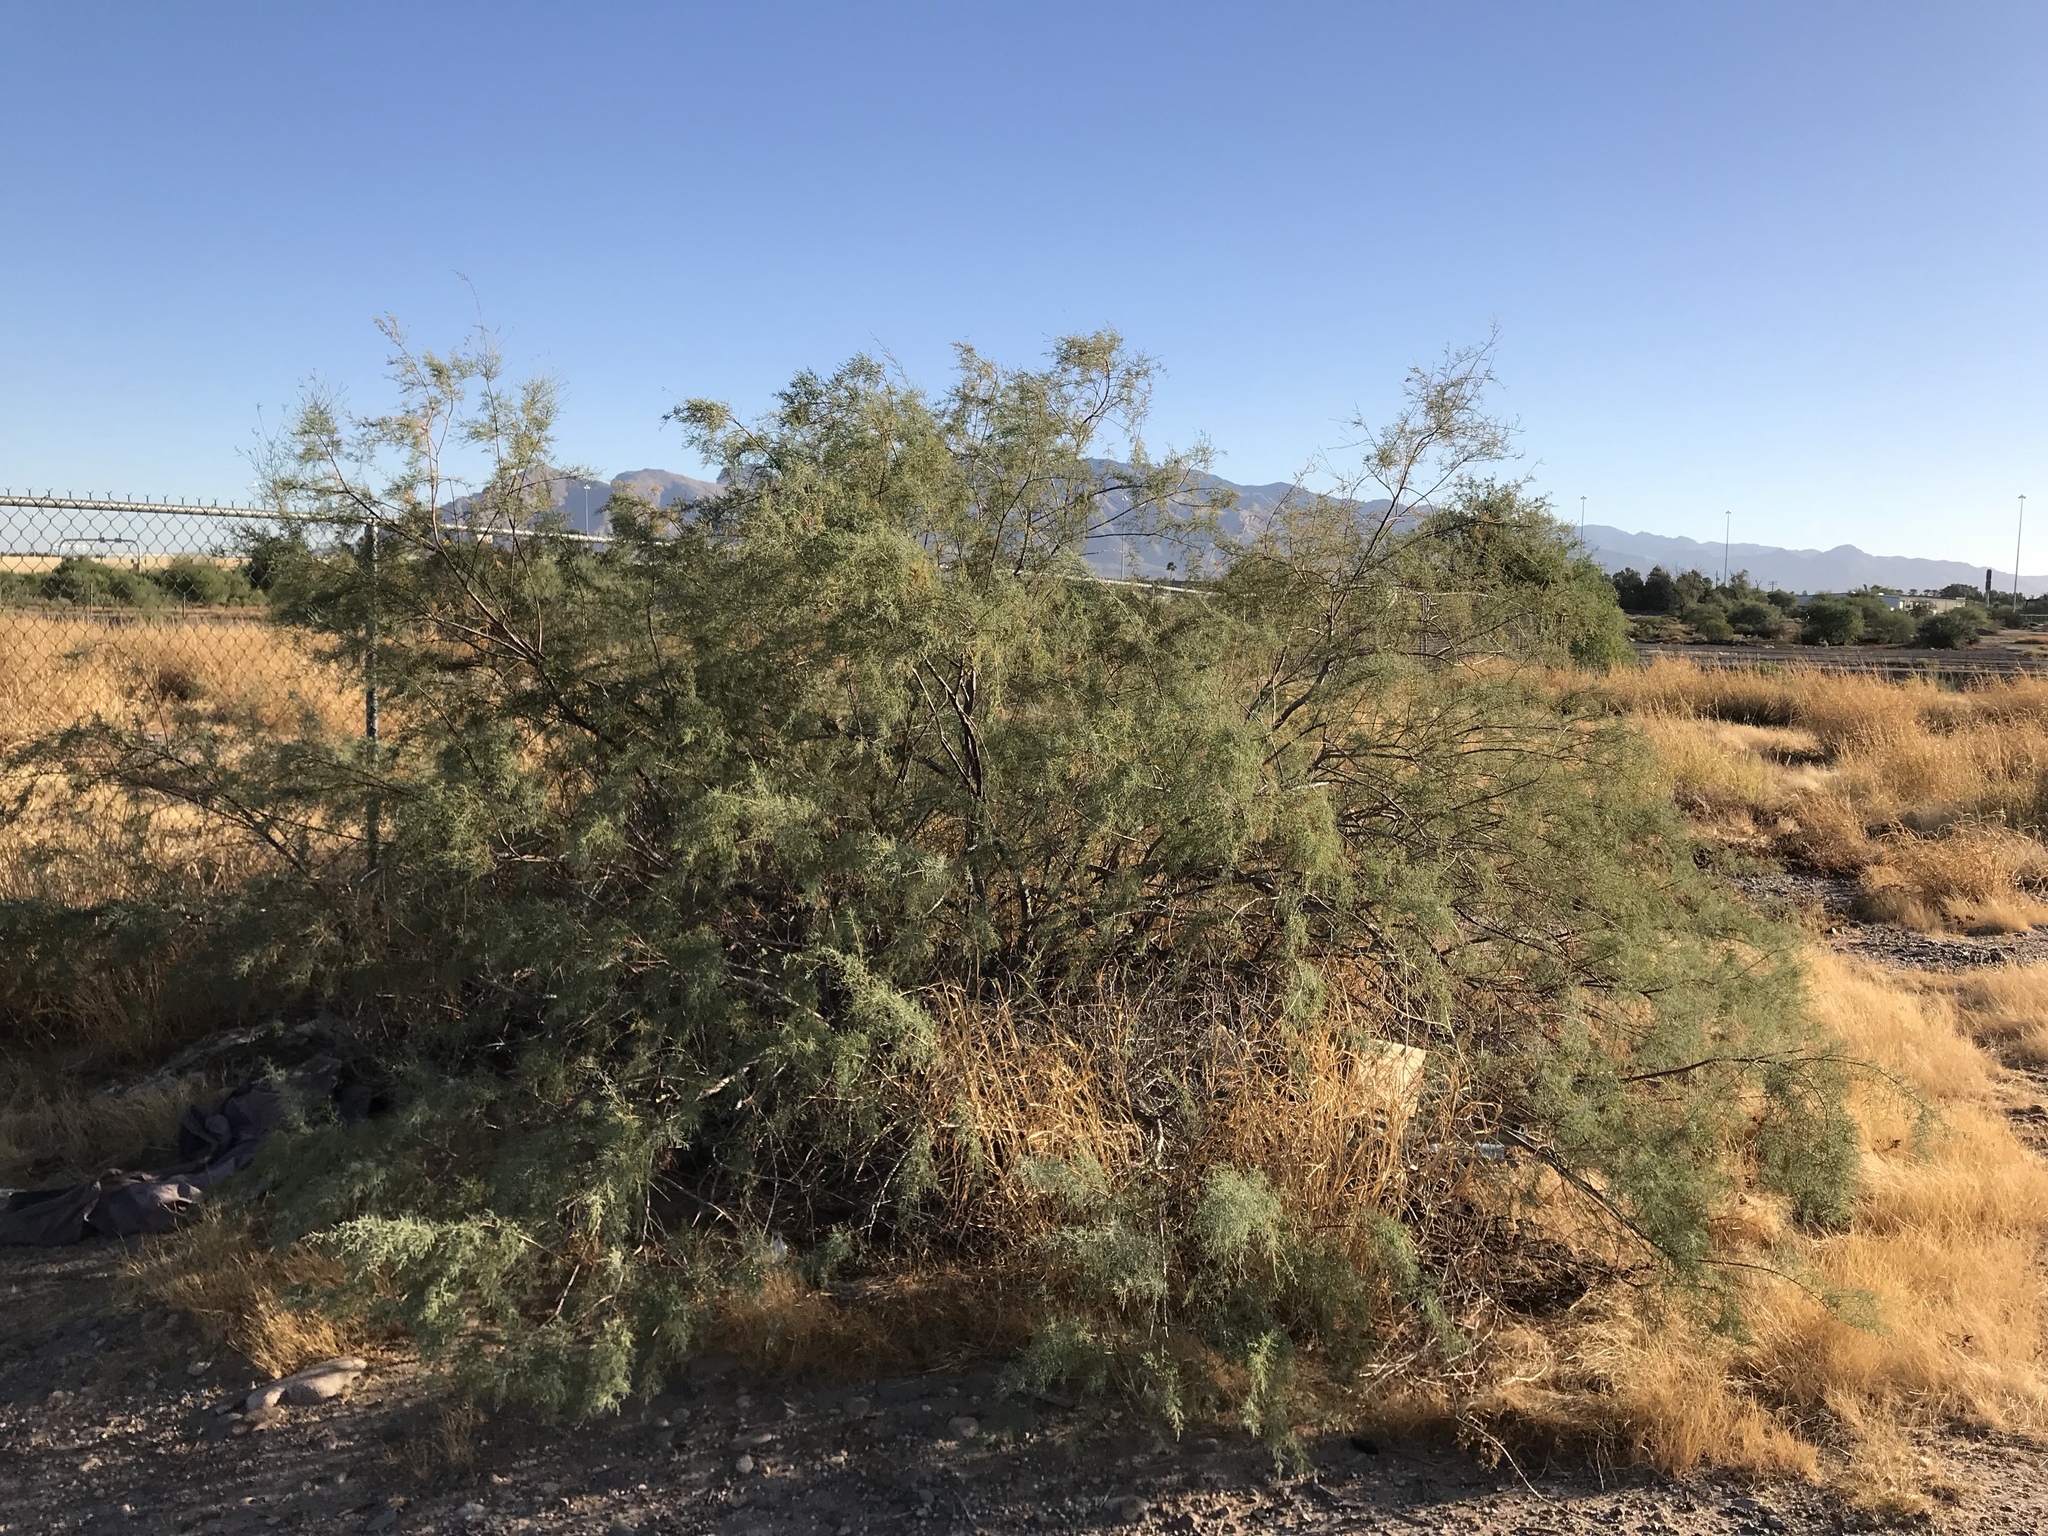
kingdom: Plantae
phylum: Tracheophyta
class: Magnoliopsida
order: Fabales
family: Fabaceae
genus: Prosopis
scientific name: Prosopis velutina
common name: Velvet mesquite
